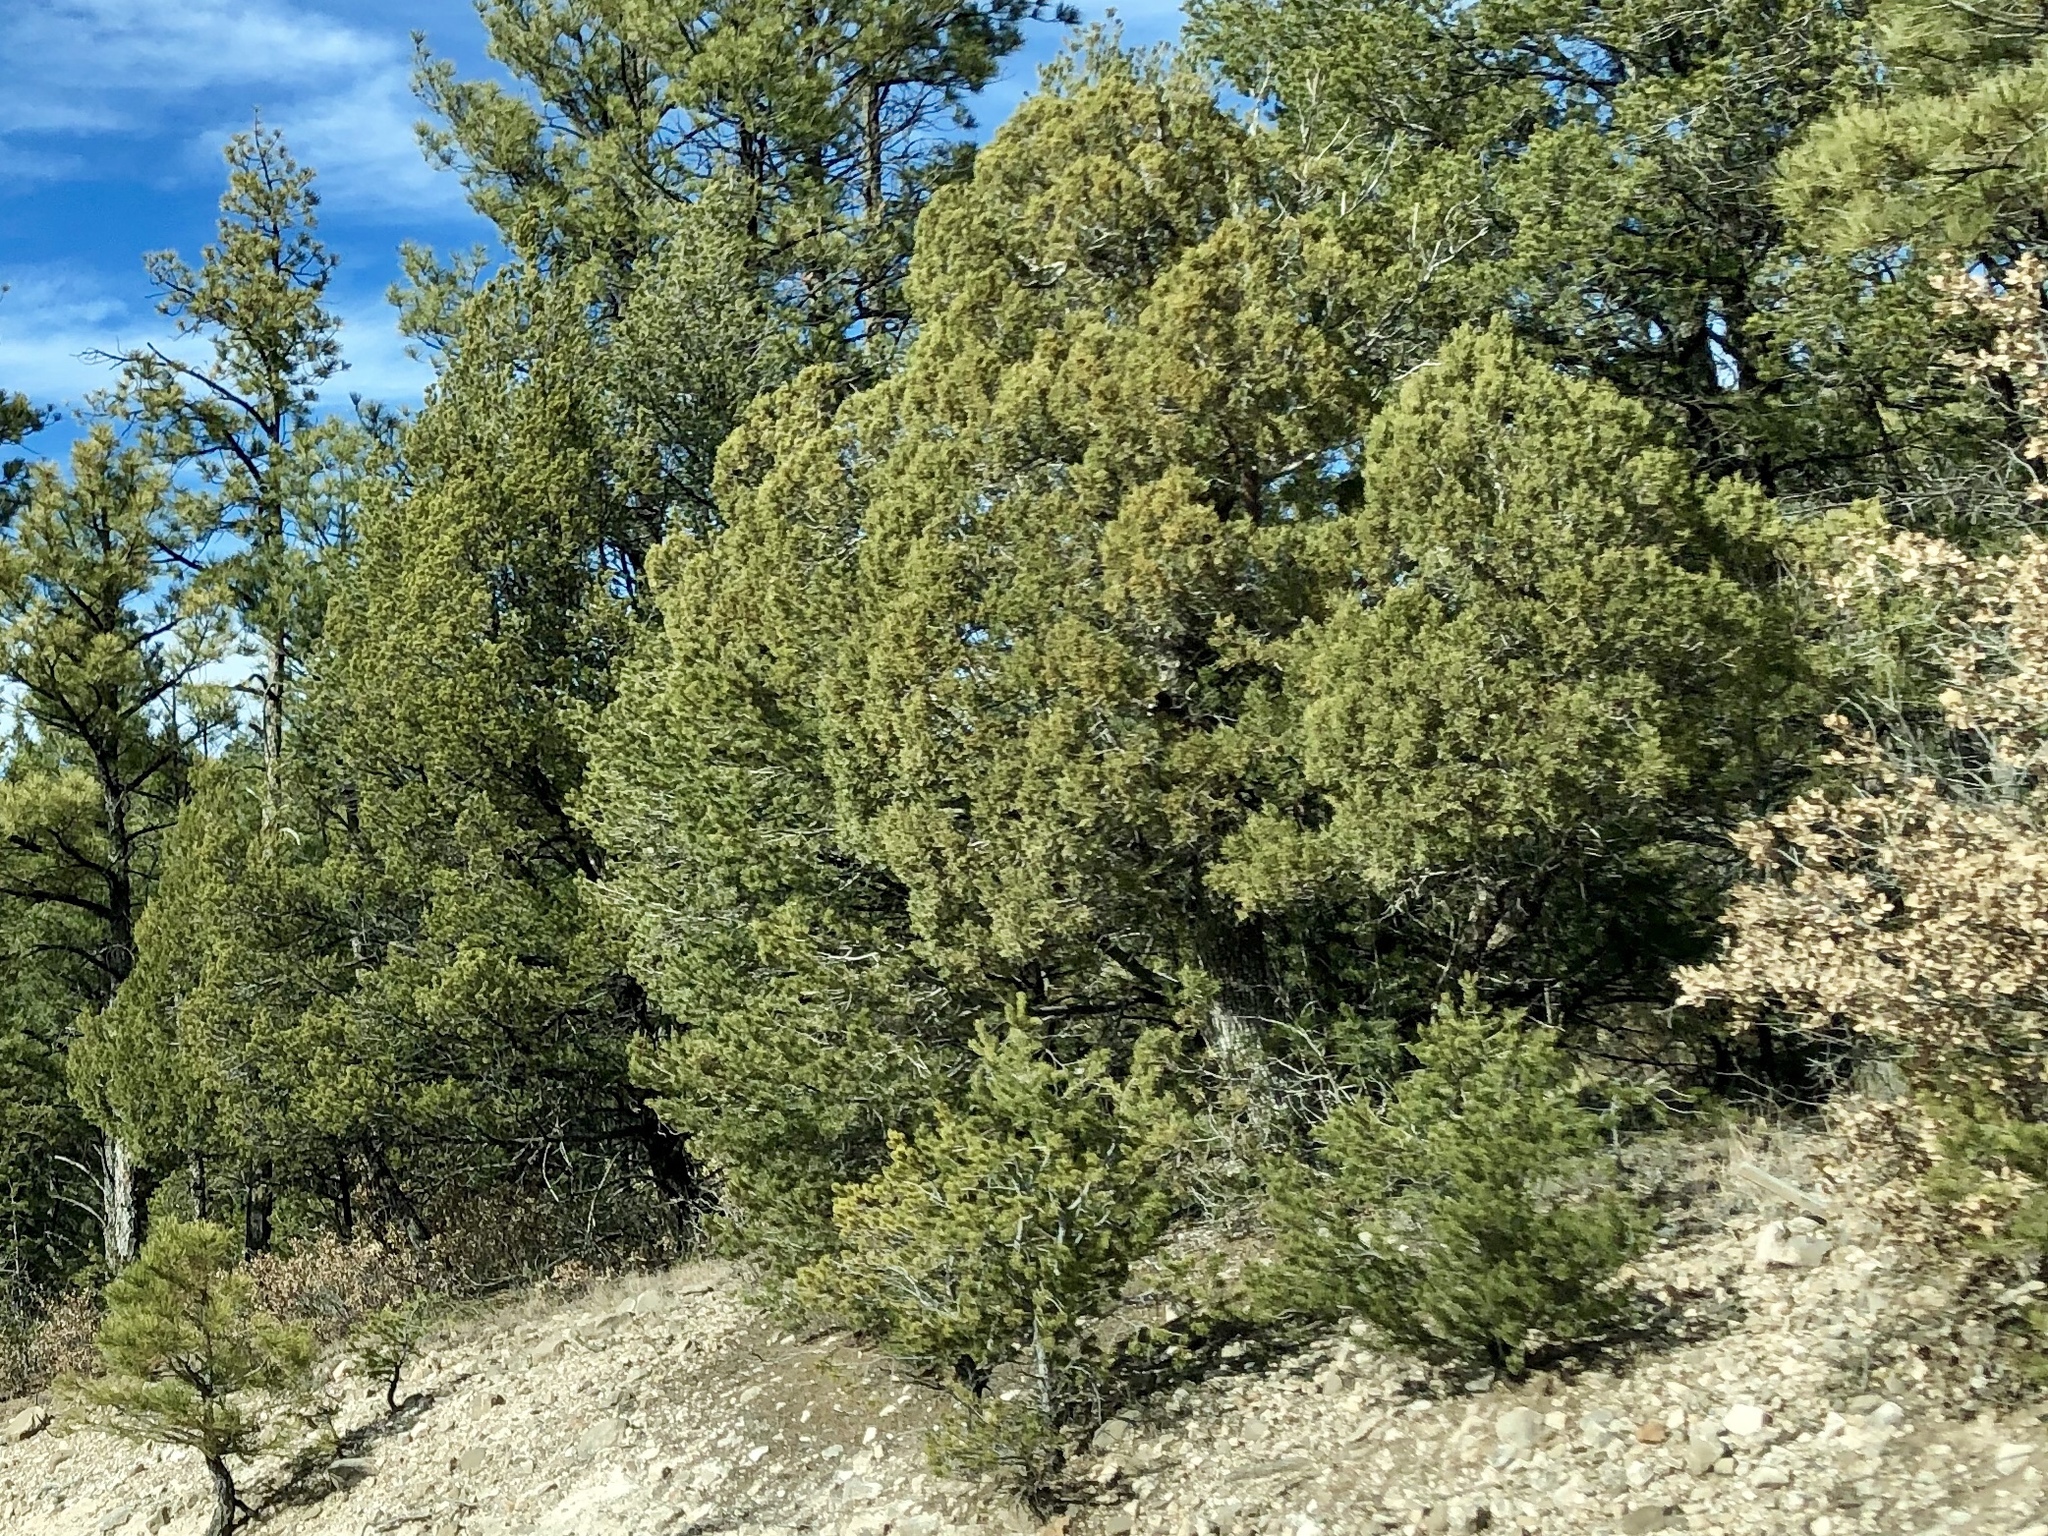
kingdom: Plantae
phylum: Tracheophyta
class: Pinopsida
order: Pinales
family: Cupressaceae
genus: Juniperus
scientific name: Juniperus deppeana
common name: Alligator juniper
